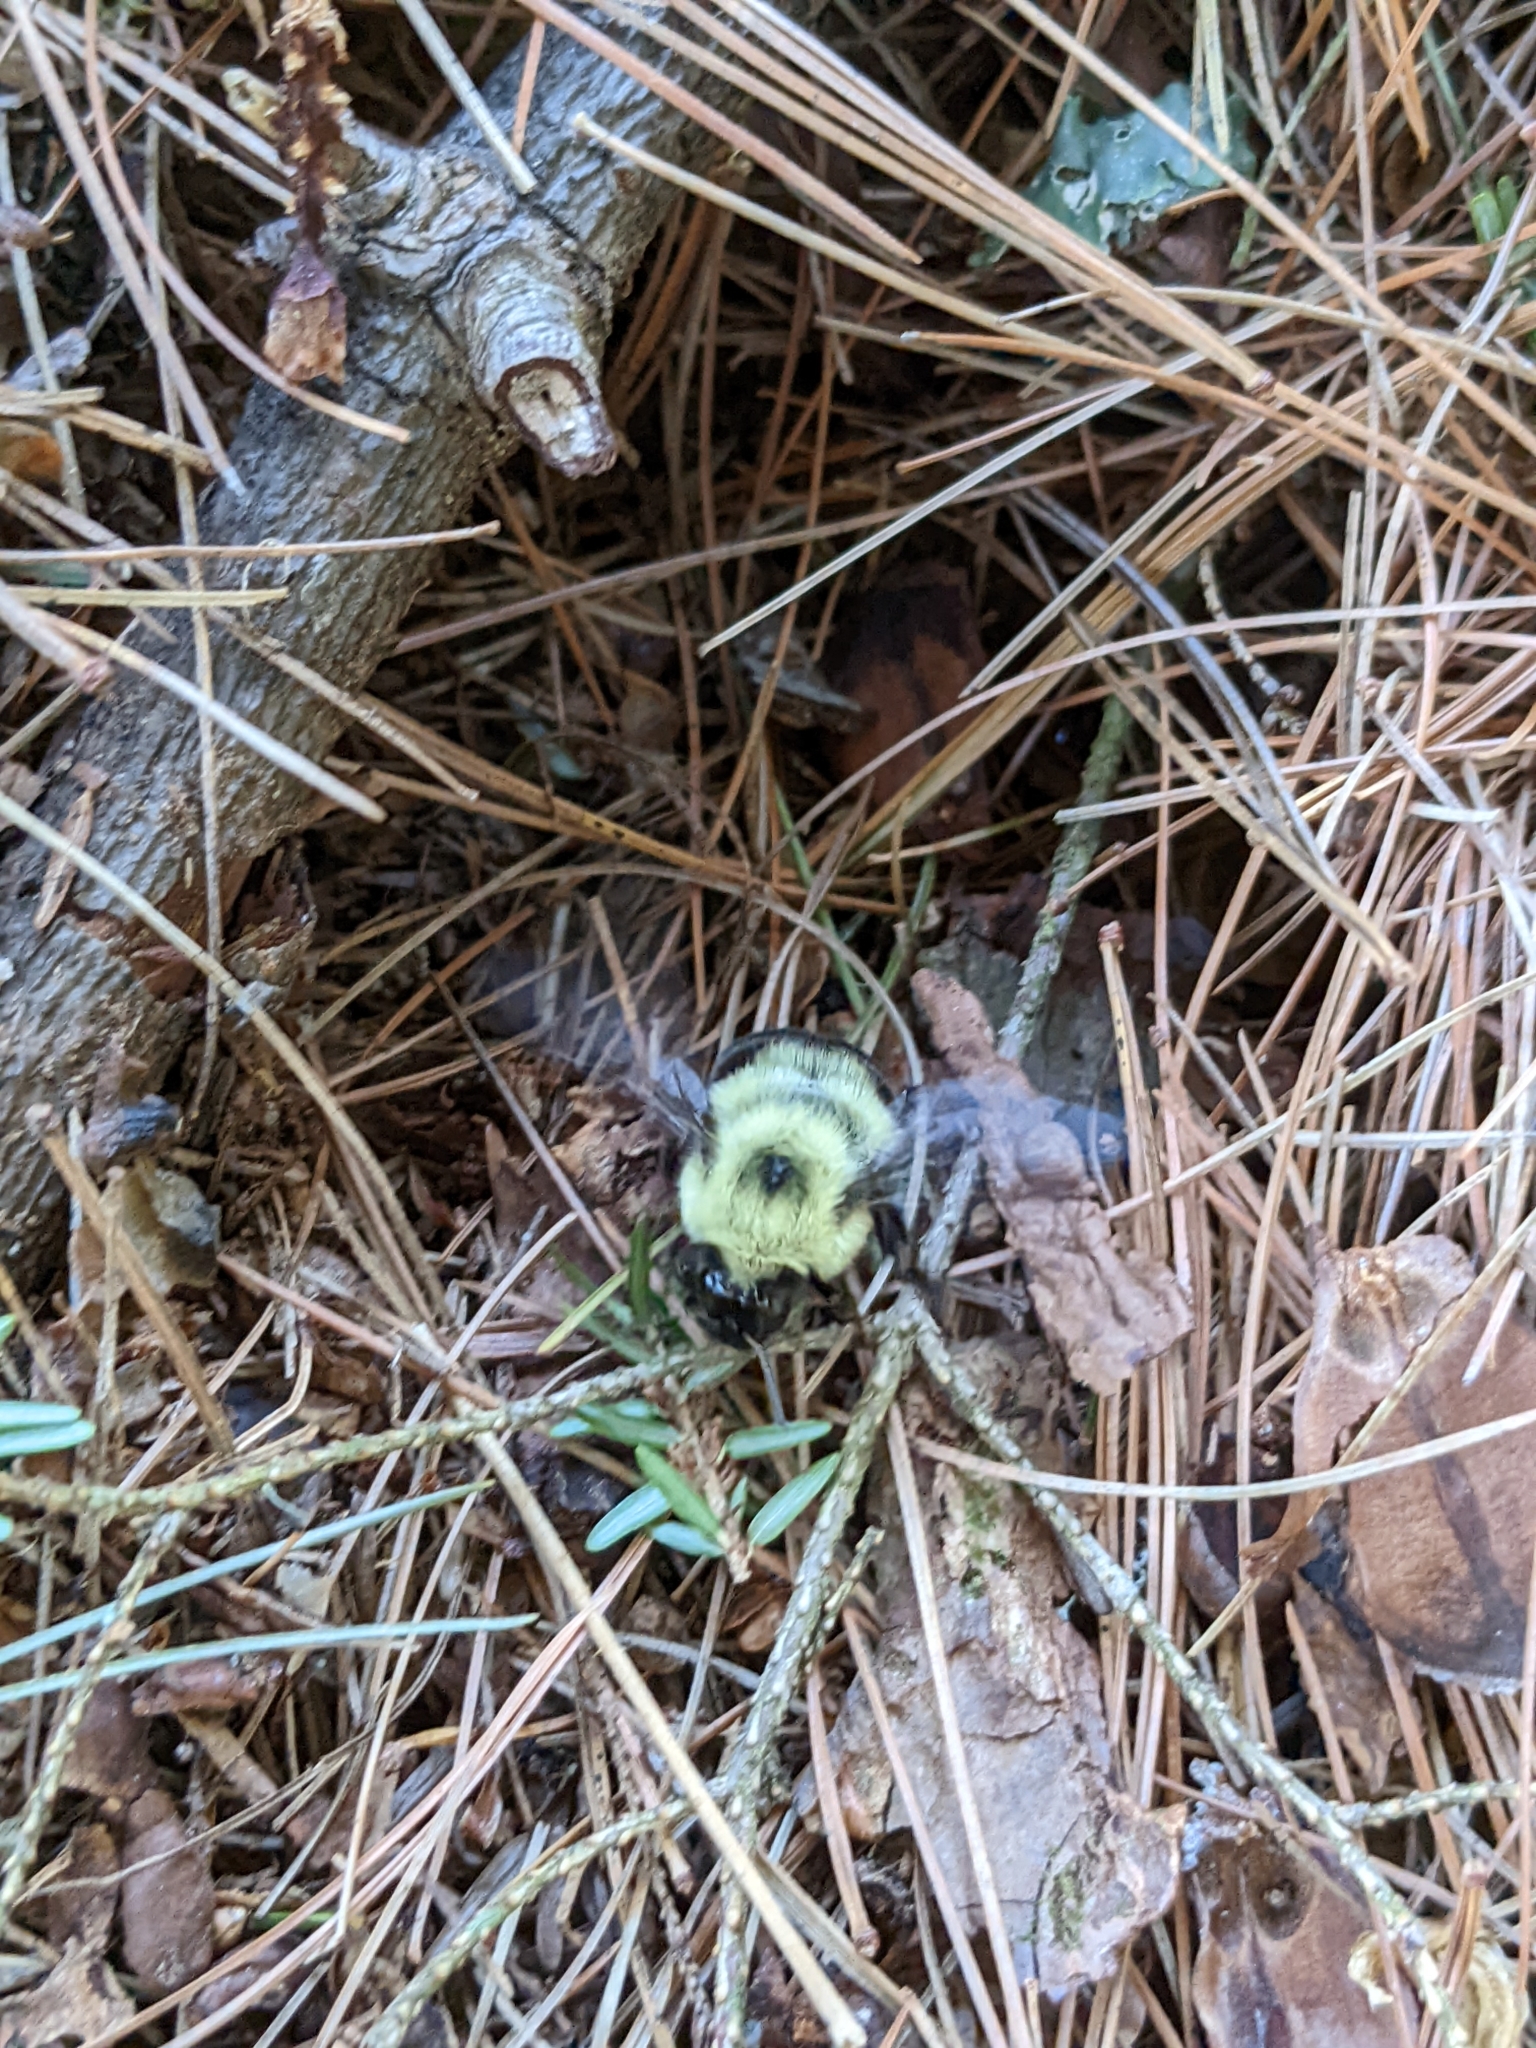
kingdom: Animalia
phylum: Arthropoda
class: Insecta
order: Hymenoptera
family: Apidae
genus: Bombus
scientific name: Bombus bimaculatus
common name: Two-spotted bumble bee
